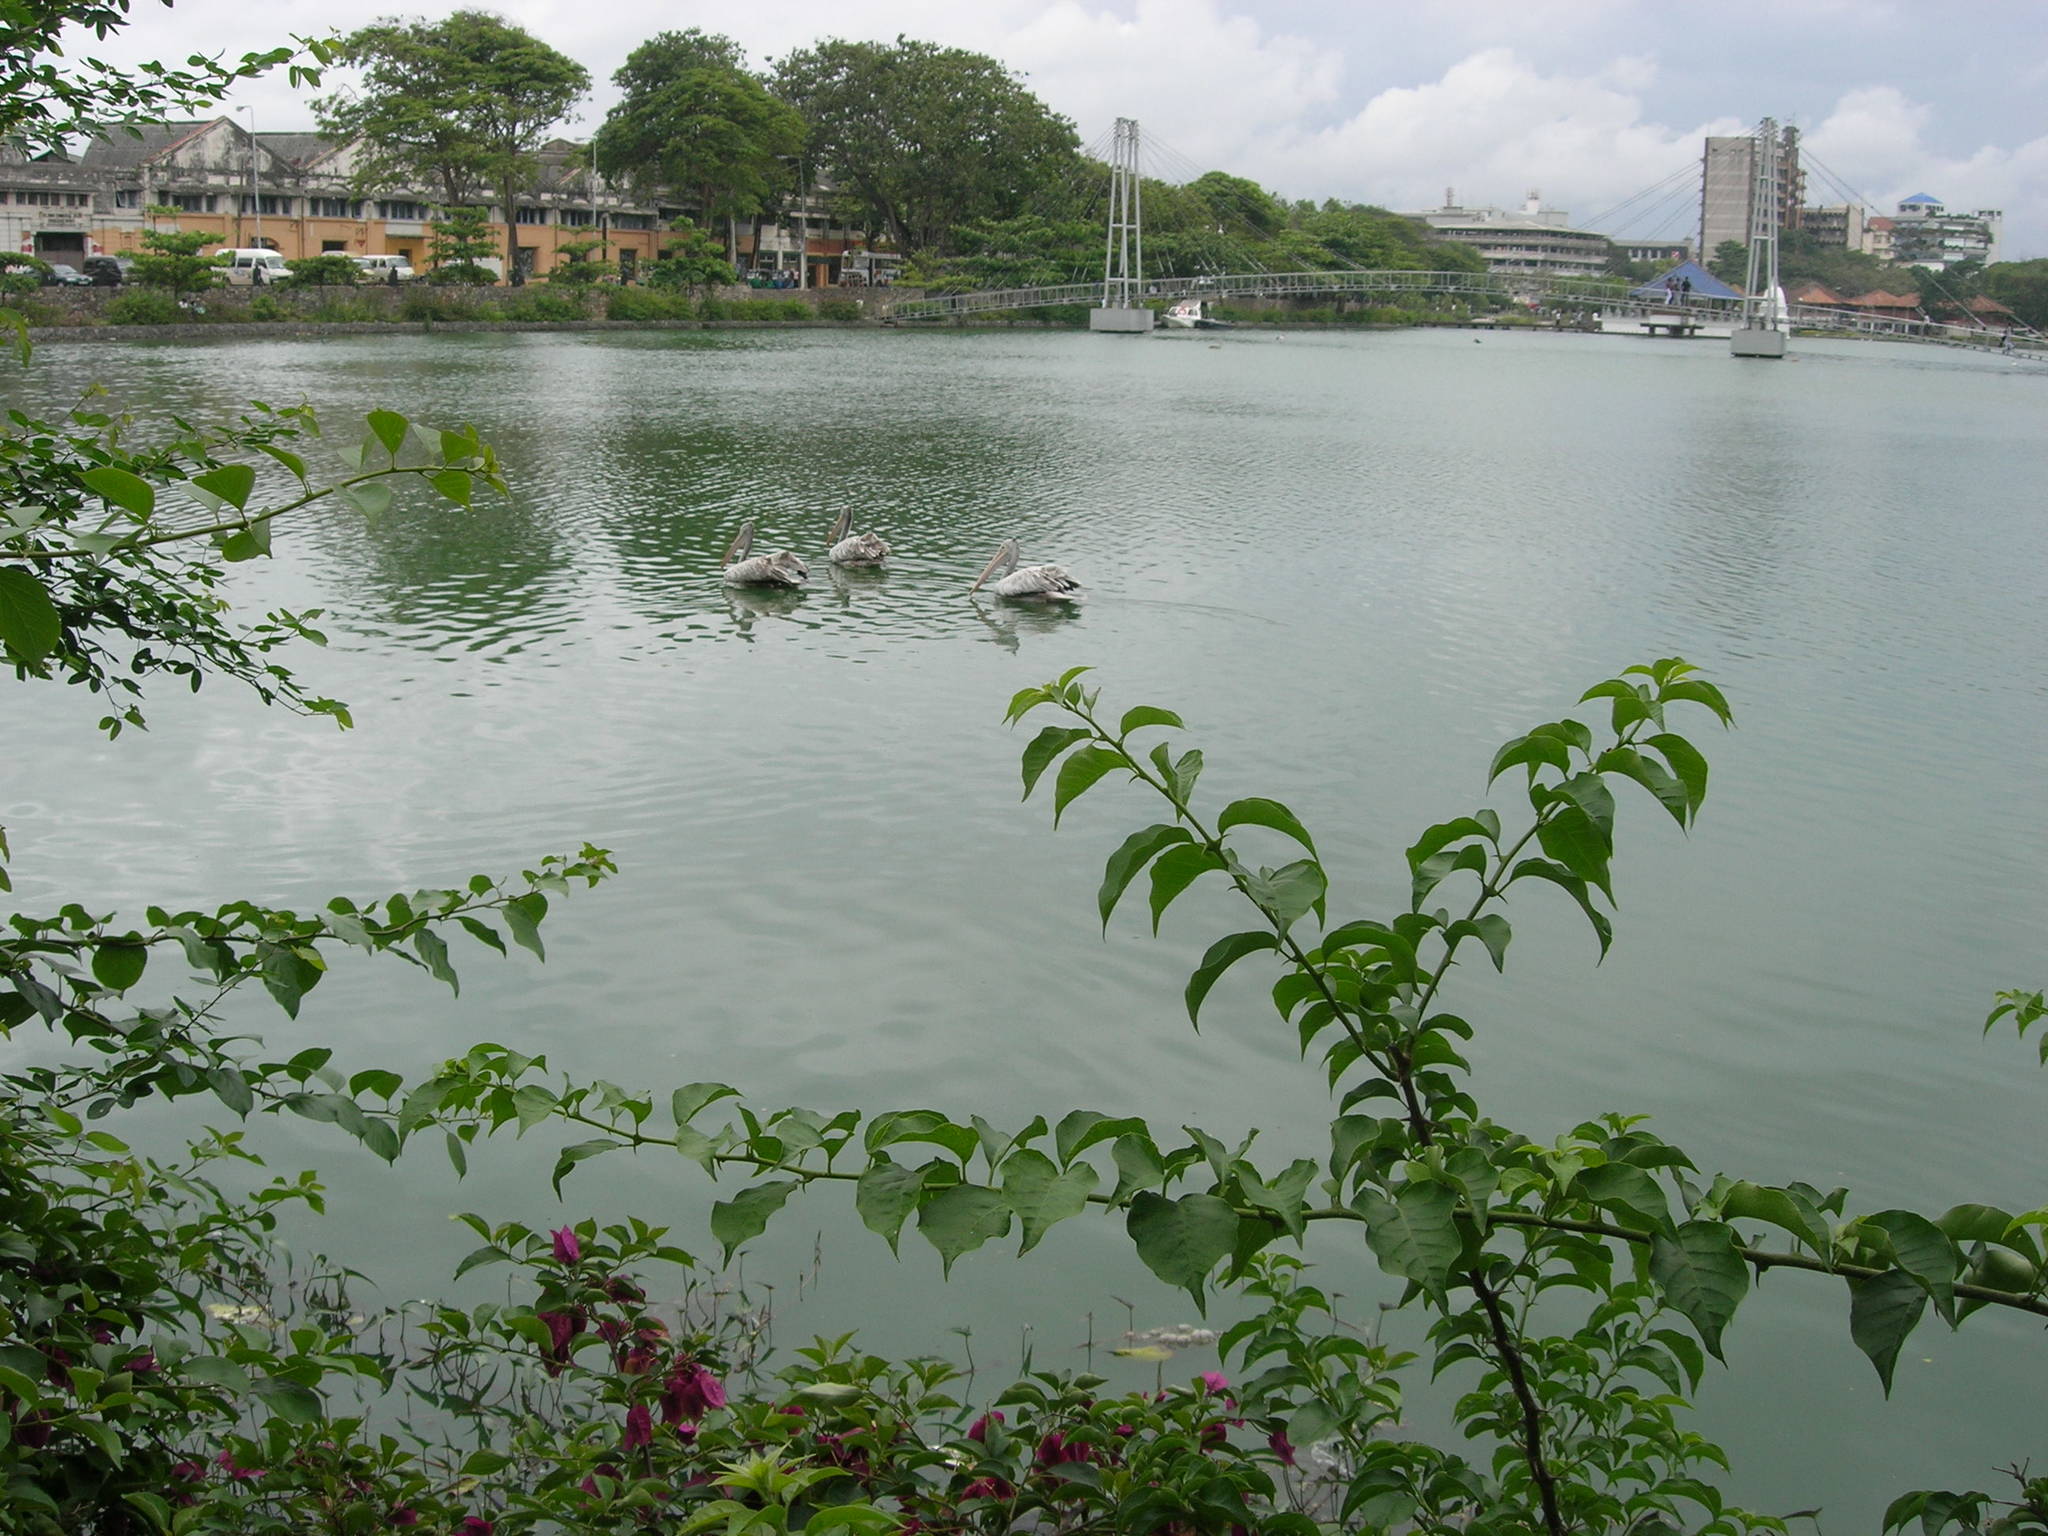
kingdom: Animalia
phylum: Chordata
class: Aves
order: Pelecaniformes
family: Pelecanidae
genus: Pelecanus
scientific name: Pelecanus philippensis
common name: Spot-billed pelican
